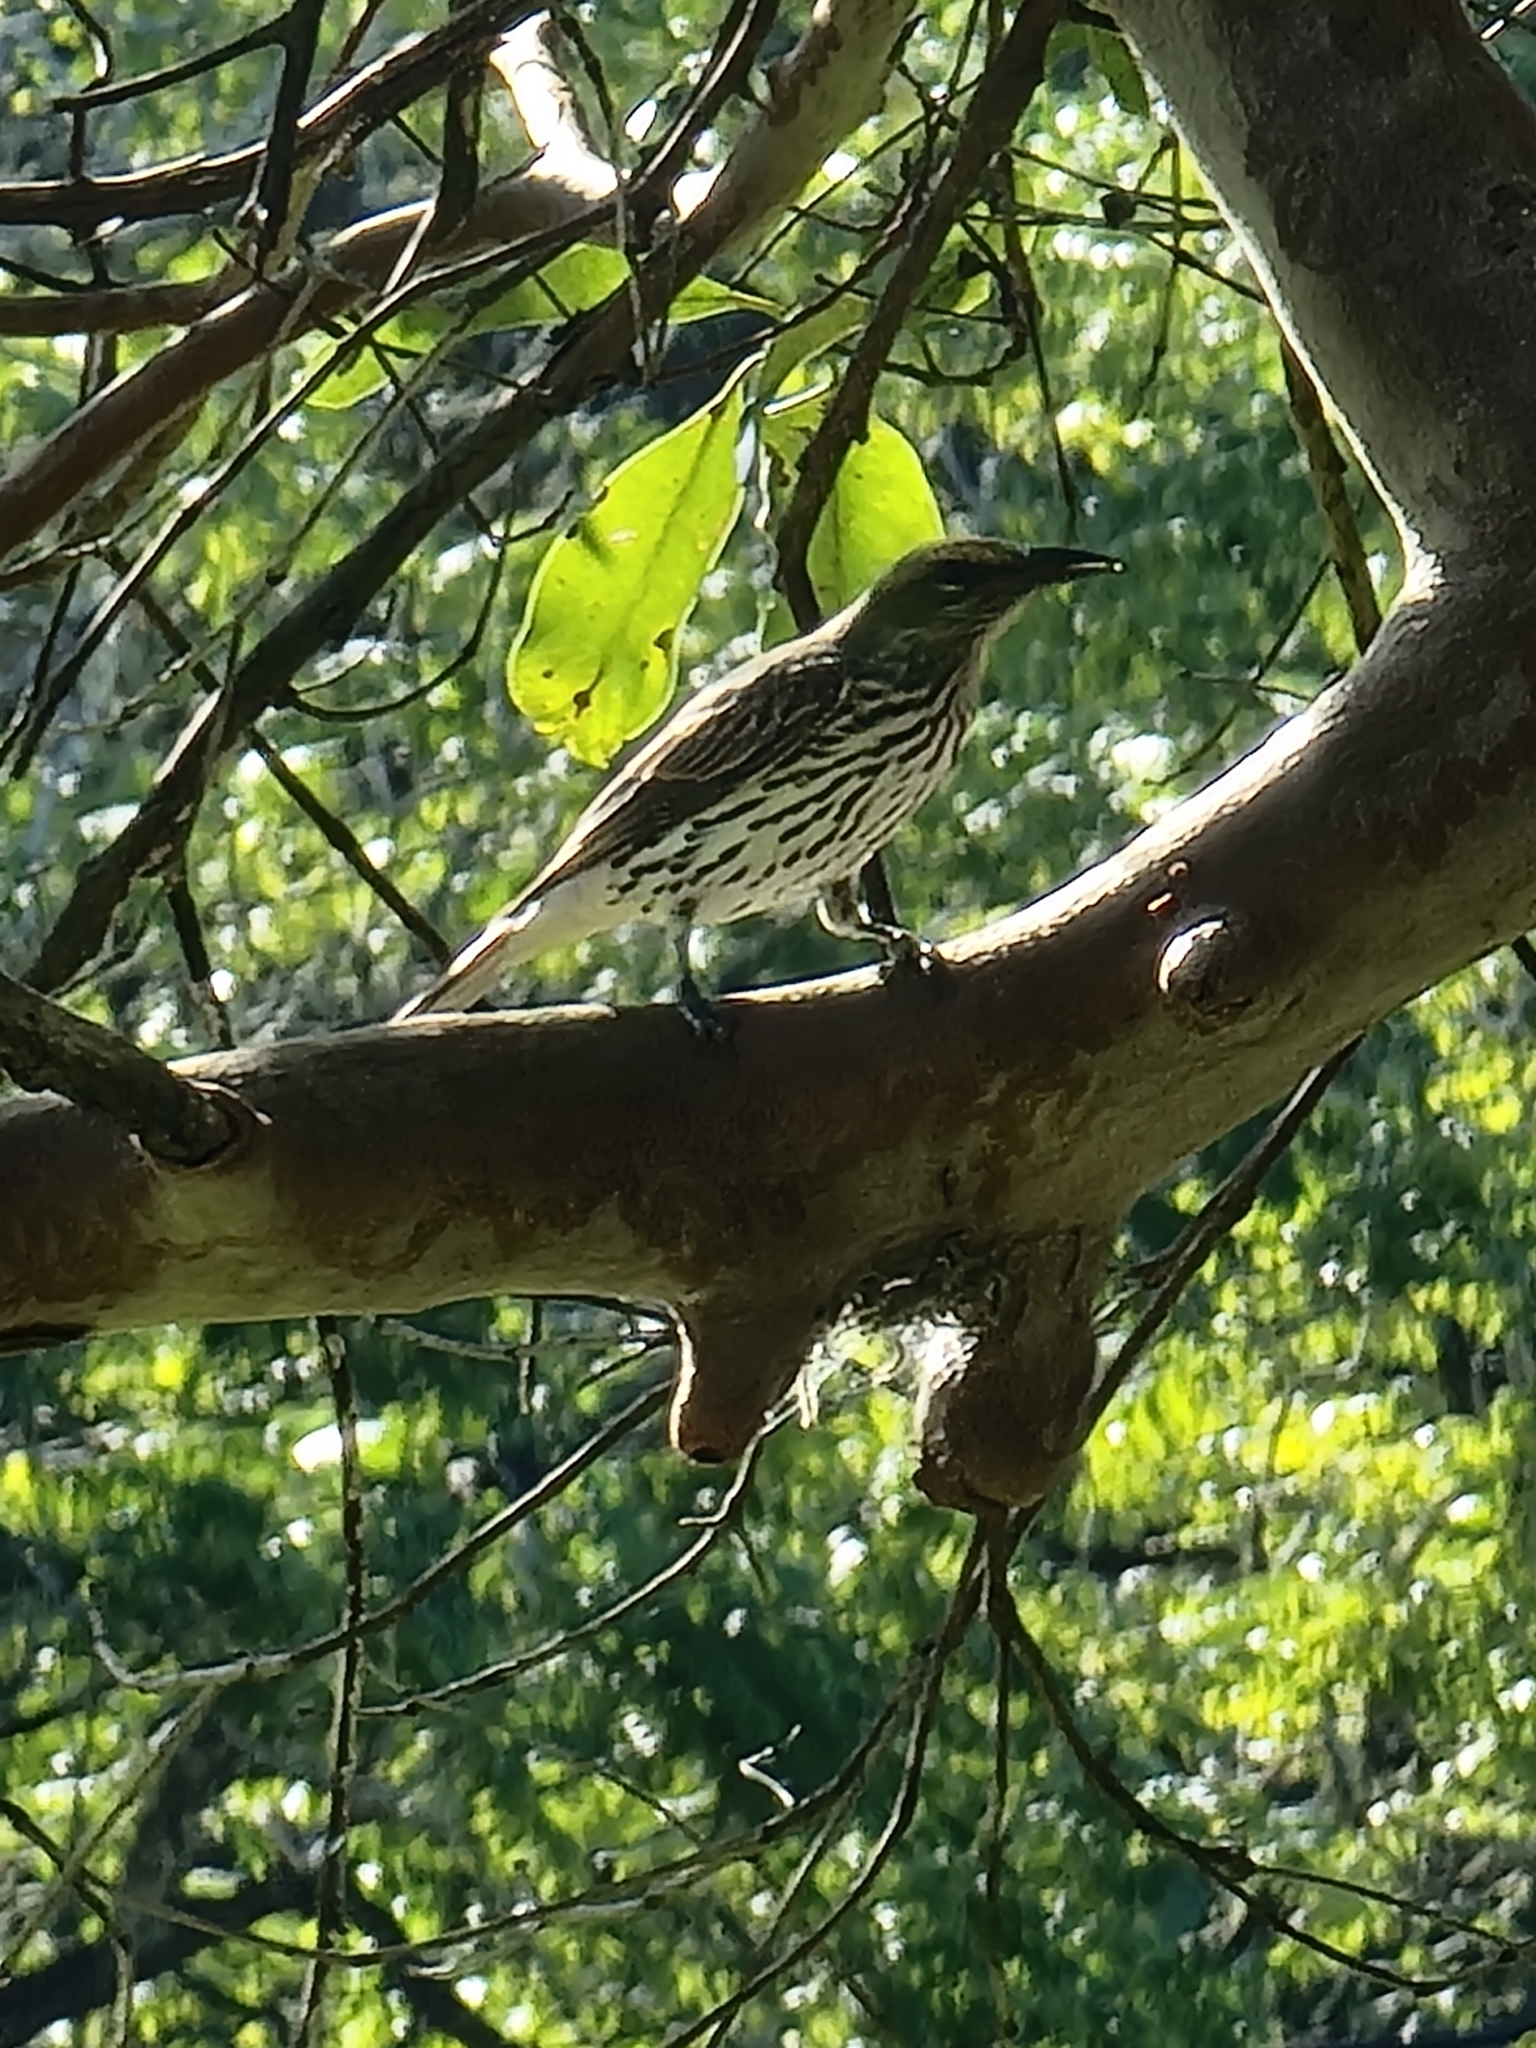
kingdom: Animalia
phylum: Chordata
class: Aves
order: Passeriformes
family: Oriolidae
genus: Oriolus
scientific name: Oriolus sagittatus
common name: Olive-backed oriole
